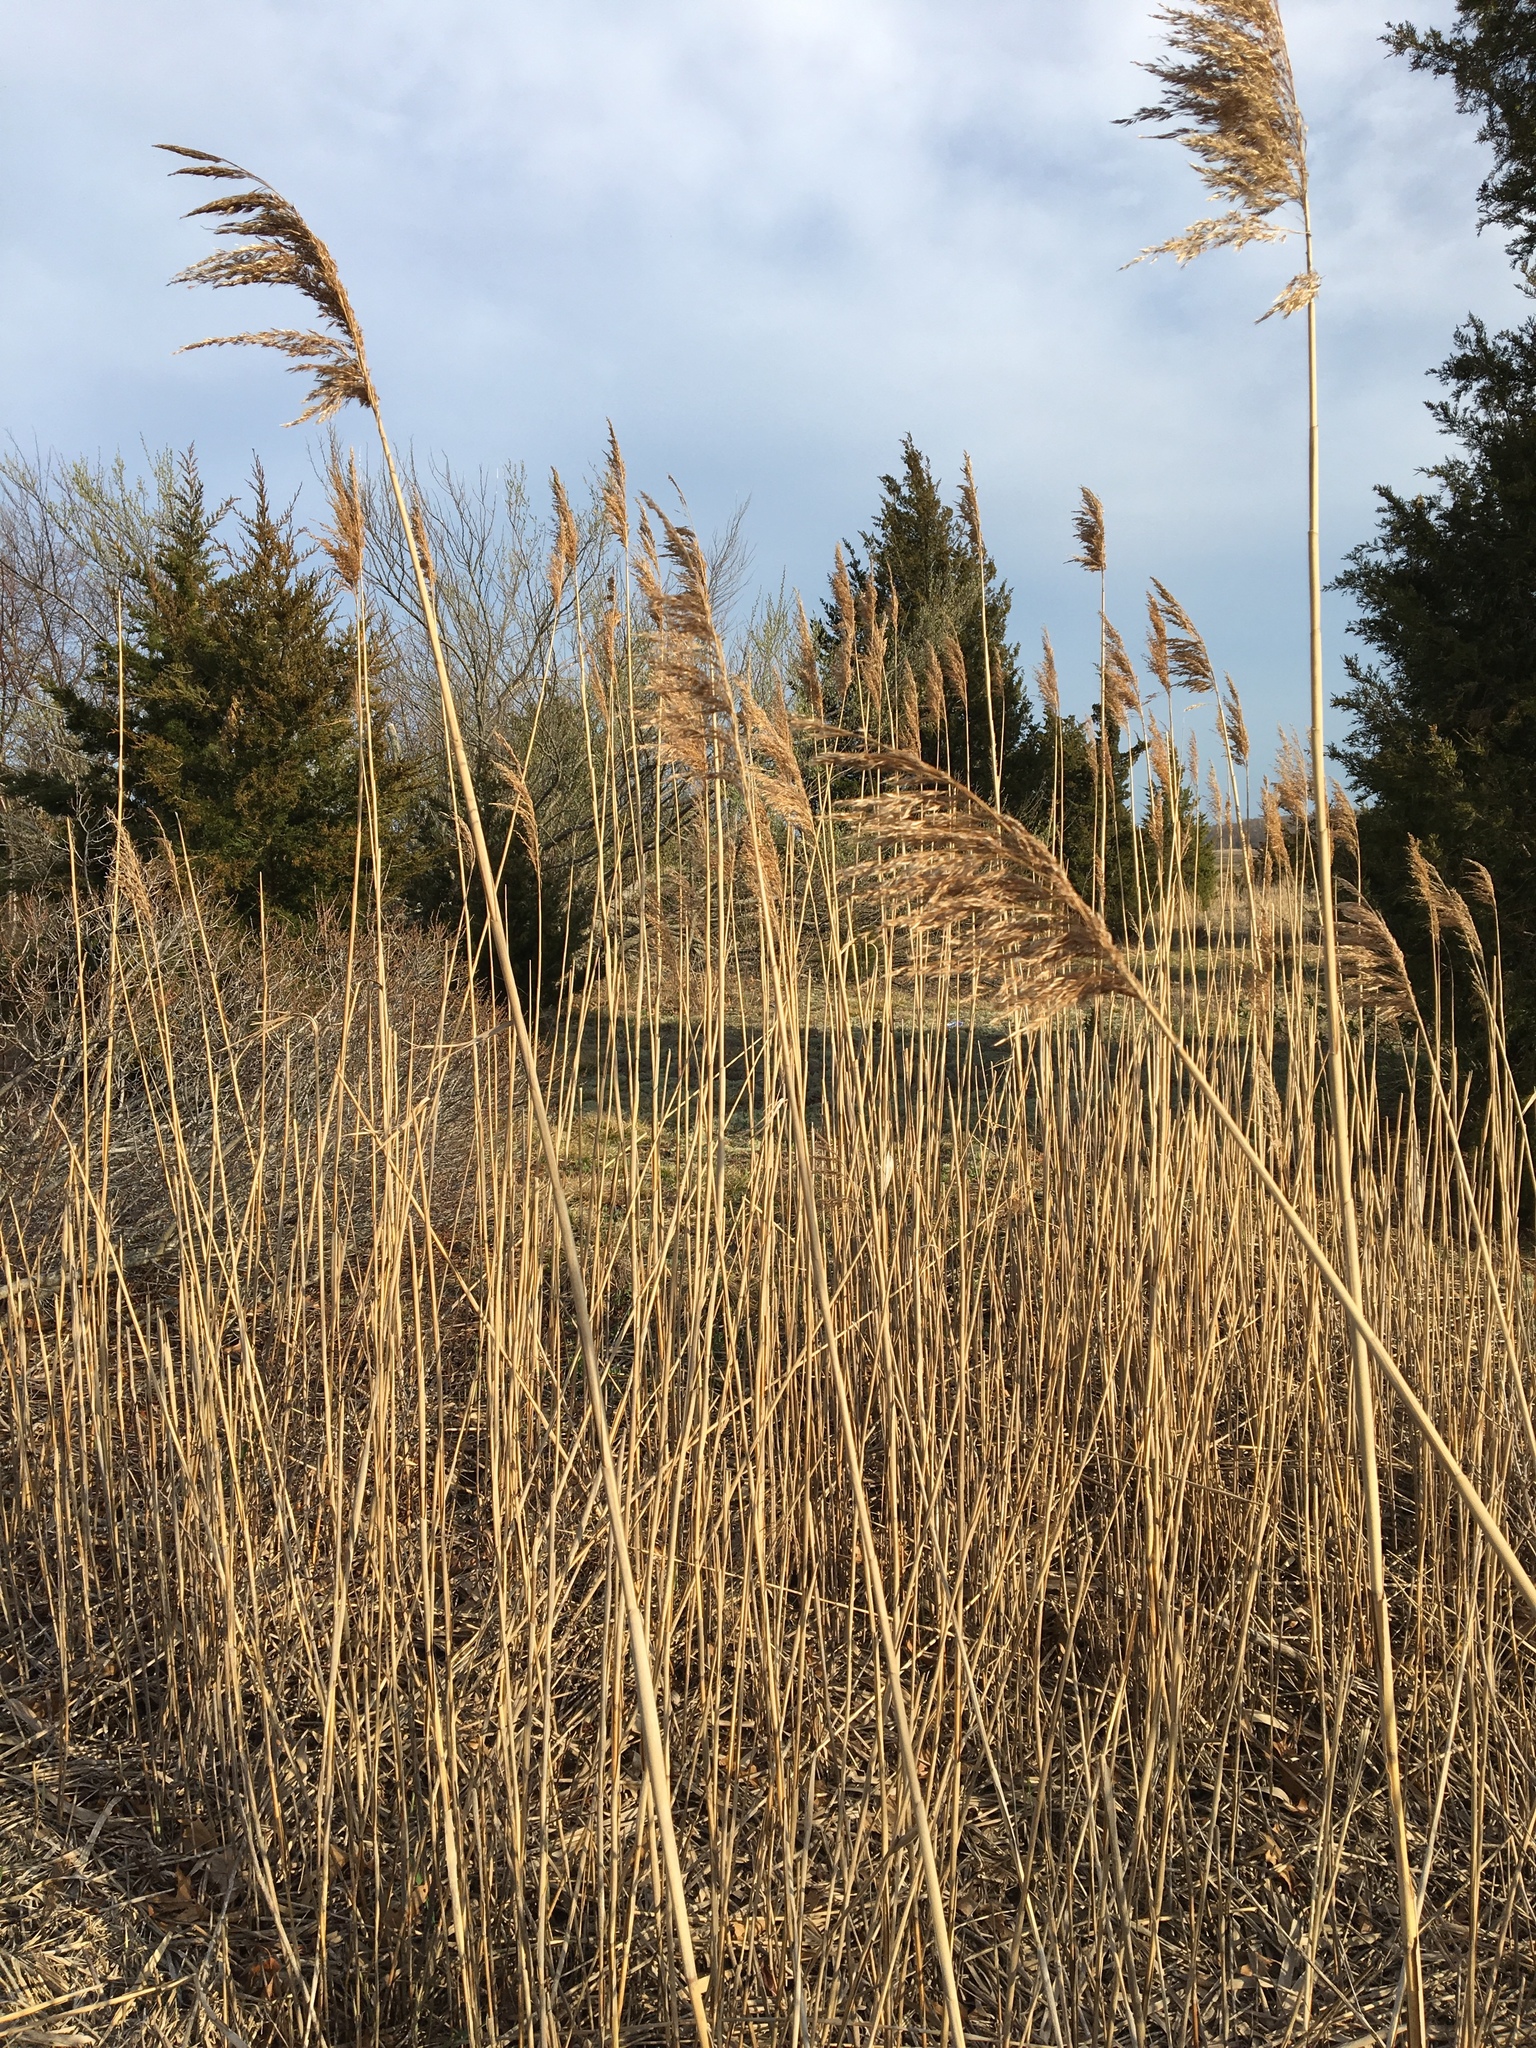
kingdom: Plantae
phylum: Tracheophyta
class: Liliopsida
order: Poales
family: Poaceae
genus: Phragmites
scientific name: Phragmites australis
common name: Common reed
